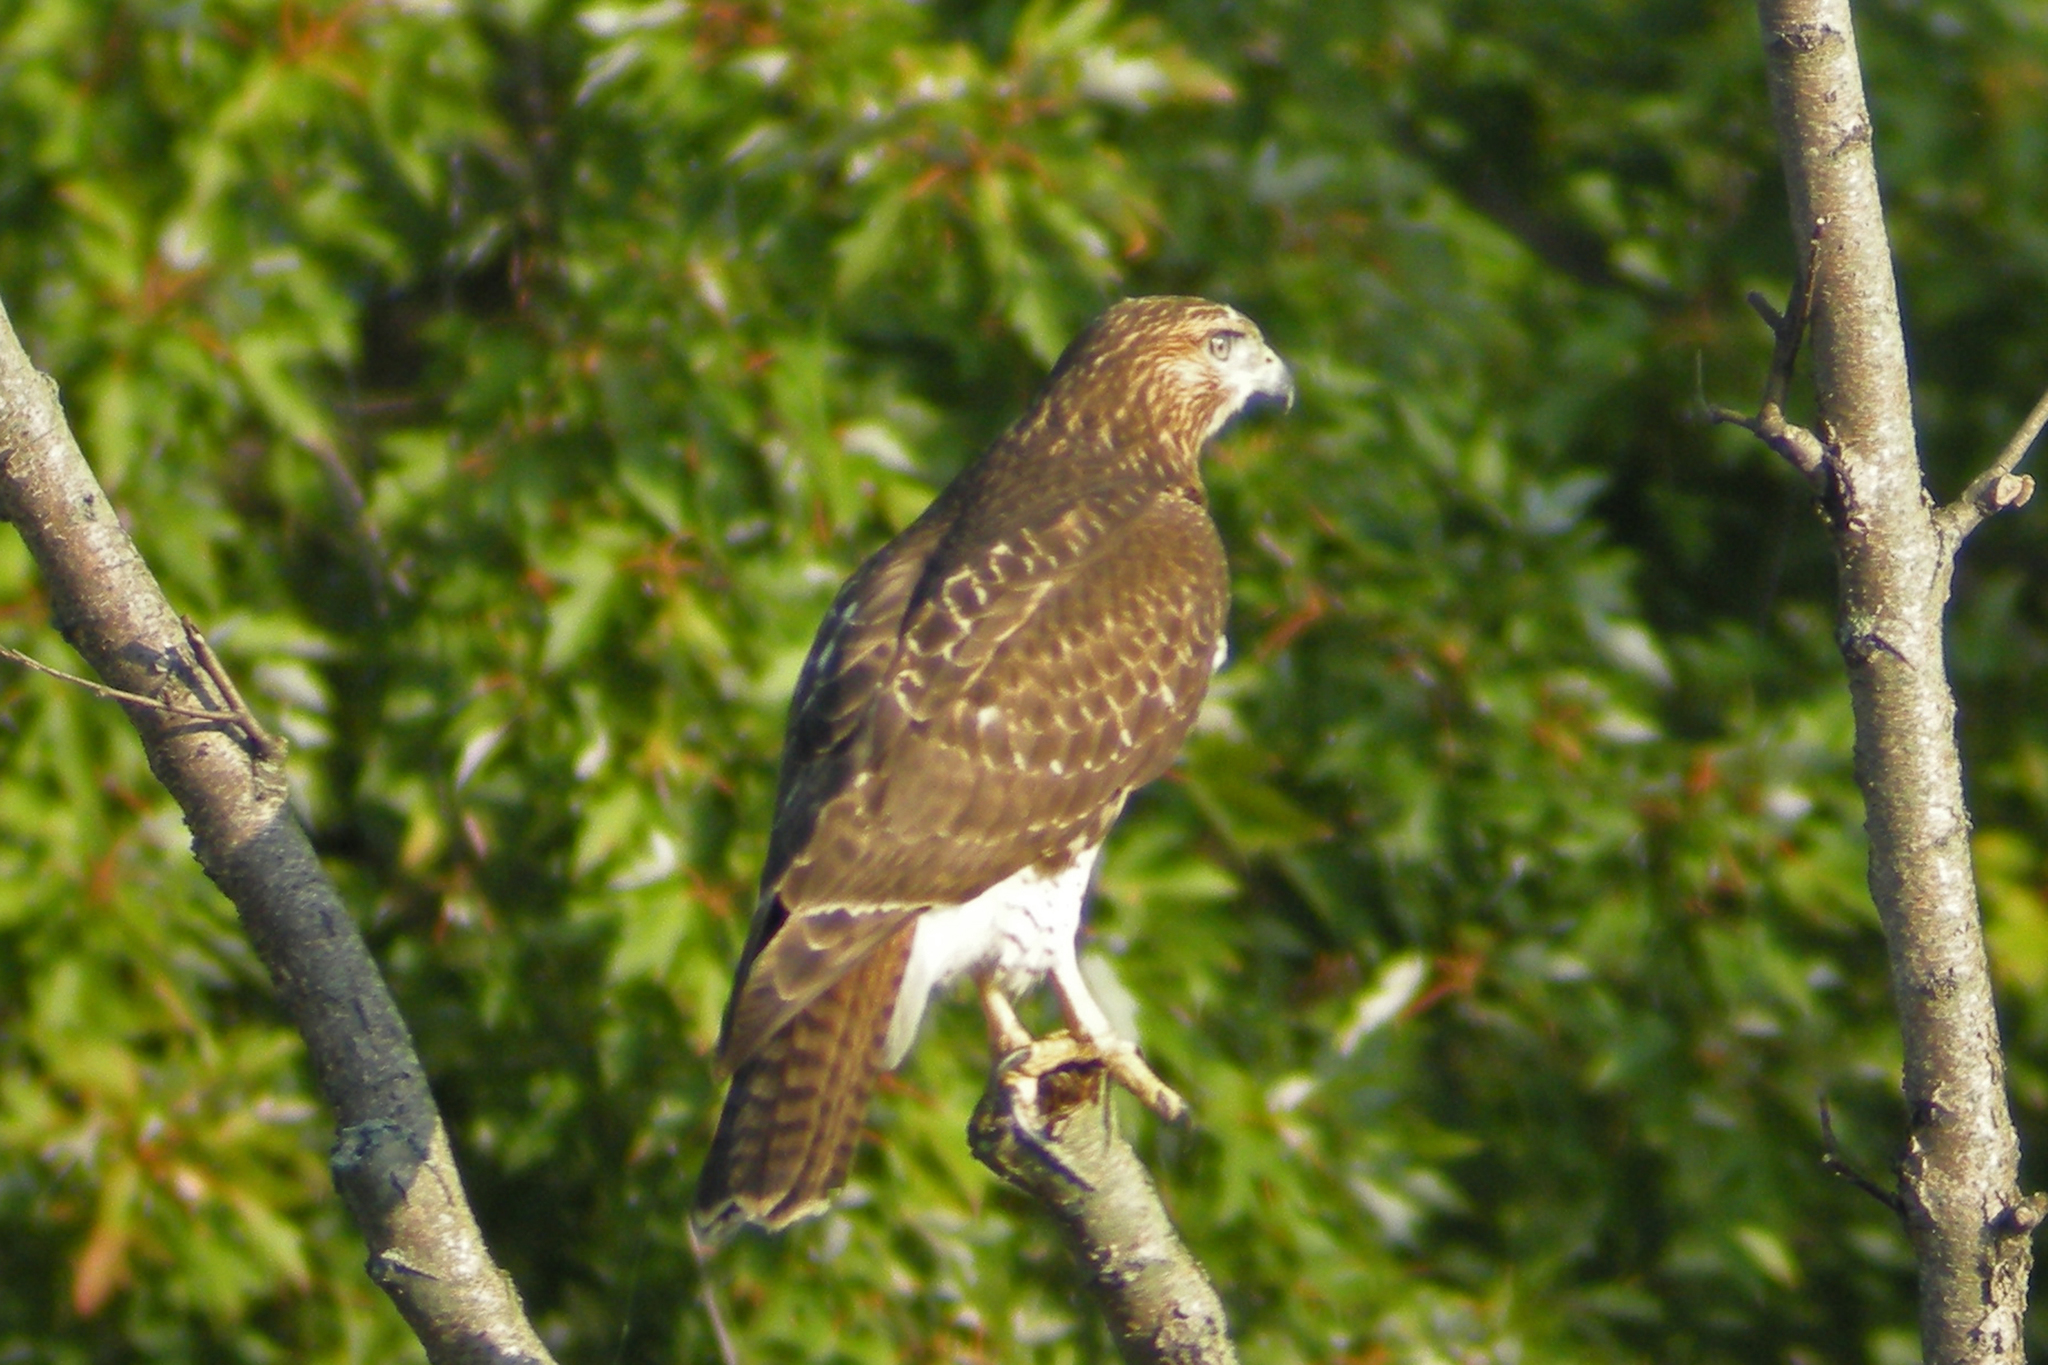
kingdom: Animalia
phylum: Chordata
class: Aves
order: Accipitriformes
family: Accipitridae
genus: Buteo
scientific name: Buteo jamaicensis
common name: Red-tailed hawk
